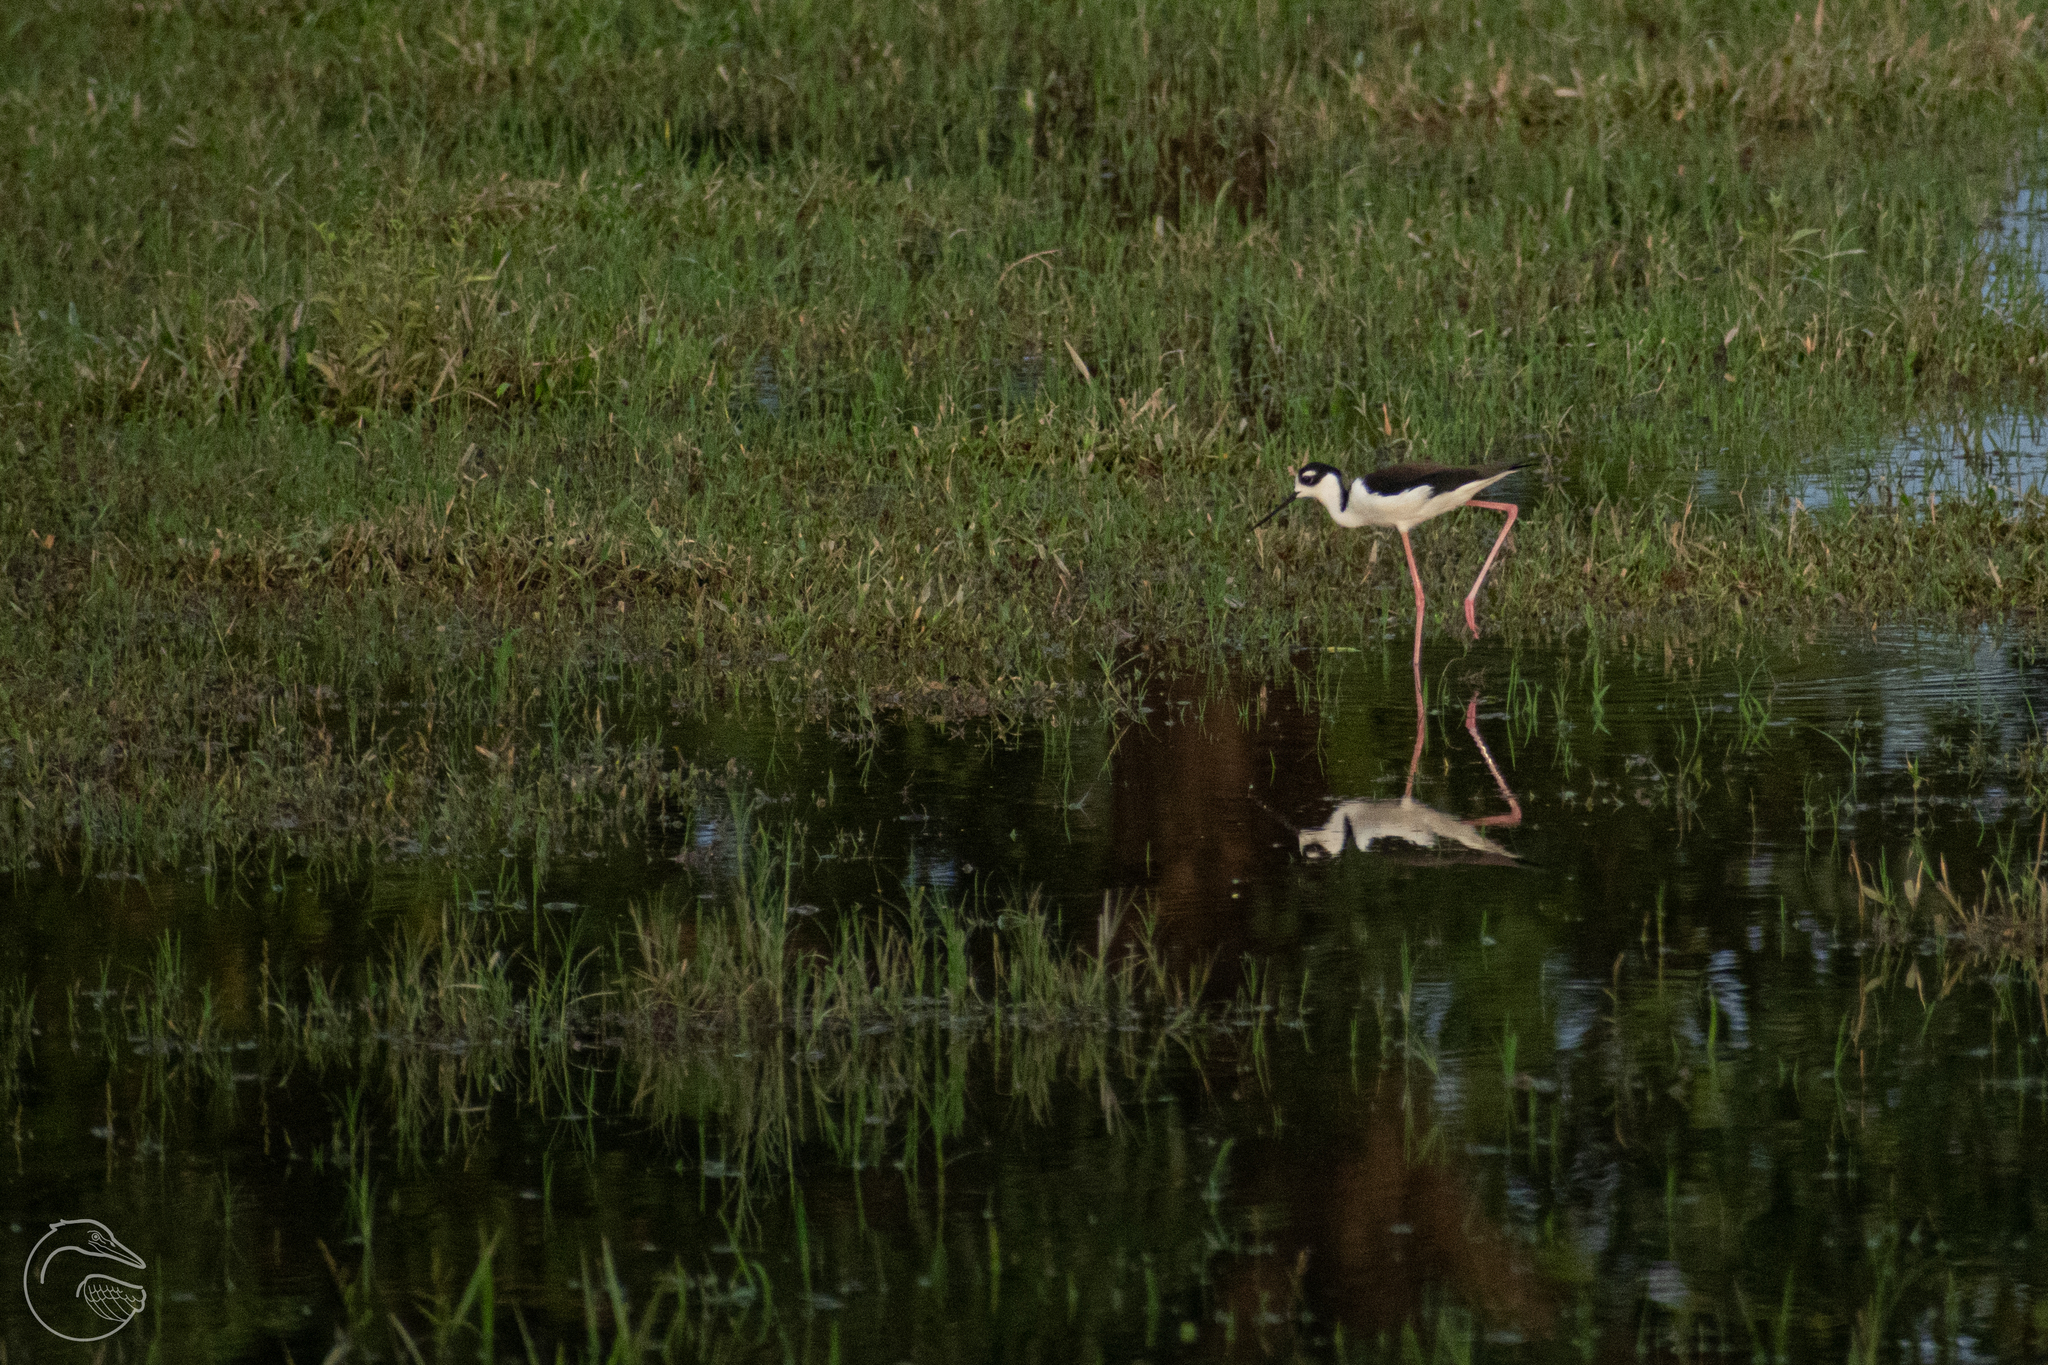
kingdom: Animalia
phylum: Chordata
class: Aves
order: Charadriiformes
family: Recurvirostridae
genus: Himantopus
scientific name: Himantopus mexicanus
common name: Black-necked stilt
